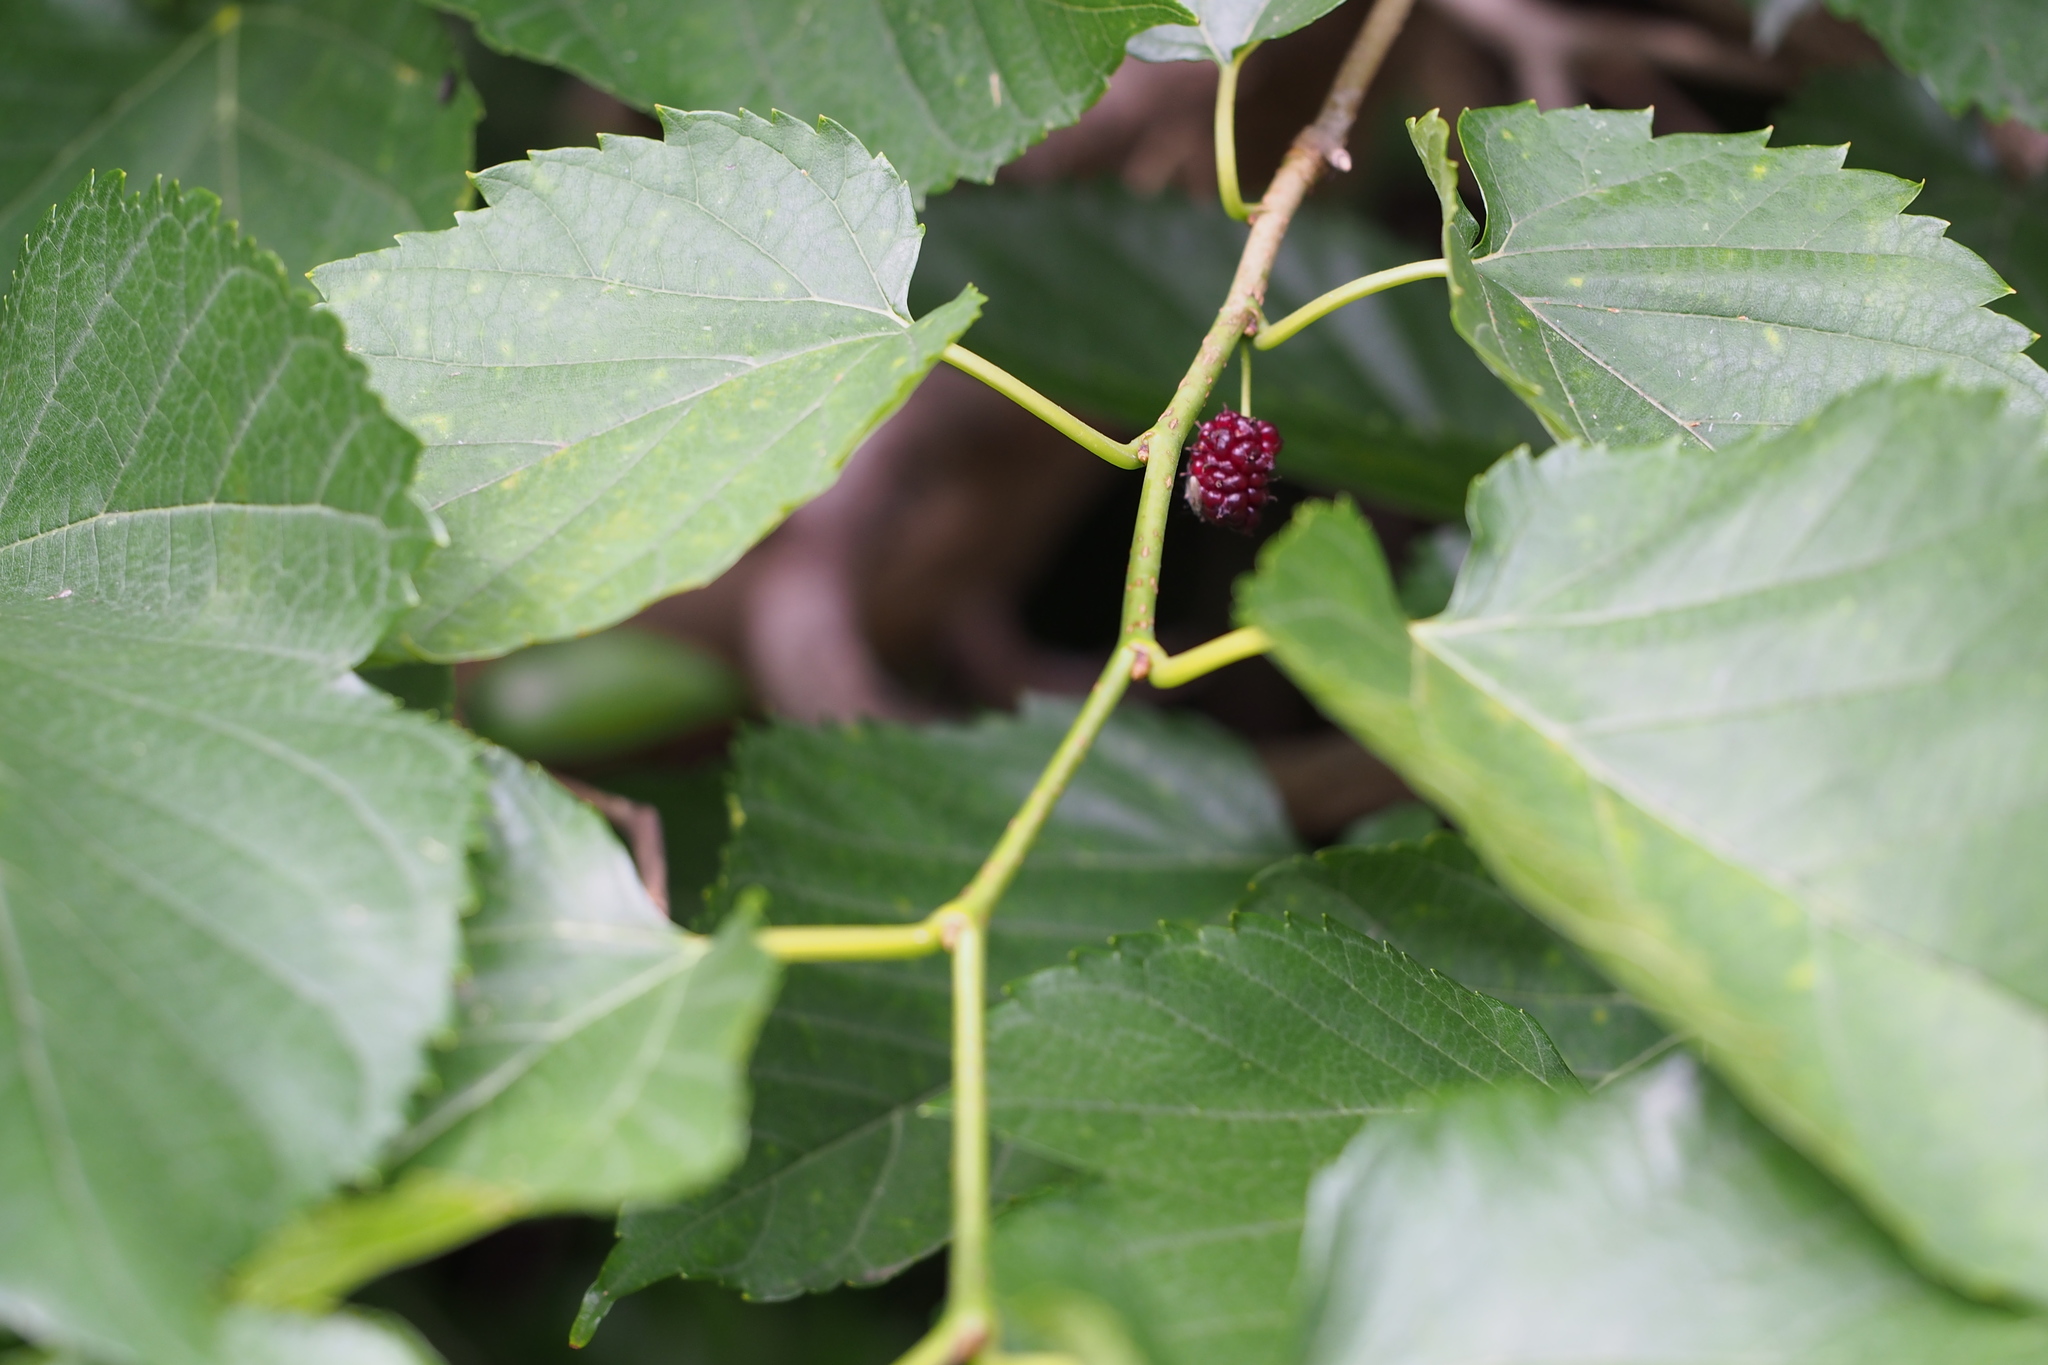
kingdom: Plantae
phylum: Tracheophyta
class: Magnoliopsida
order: Rosales
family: Moraceae
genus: Morus
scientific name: Morus indica
